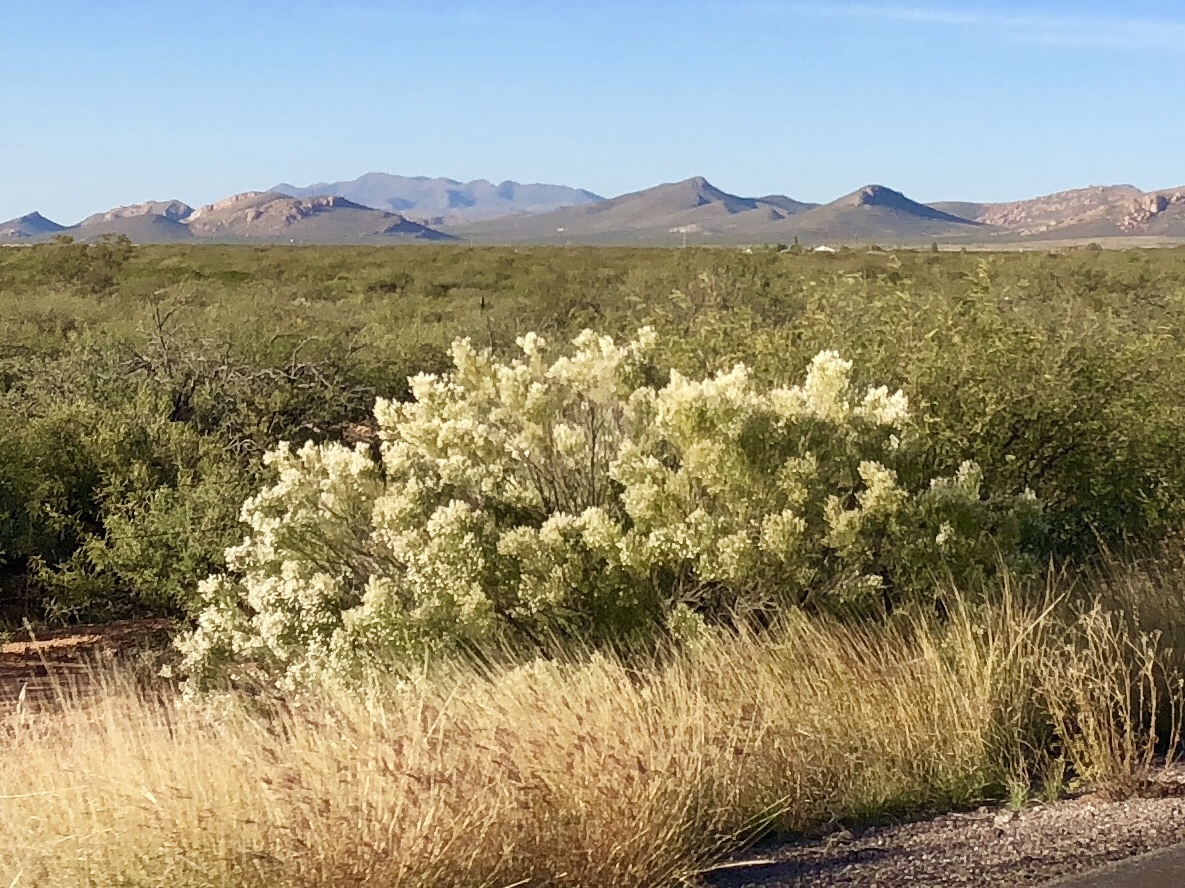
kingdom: Plantae
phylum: Tracheophyta
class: Magnoliopsida
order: Asterales
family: Asteraceae
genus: Baccharis
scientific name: Baccharis sarothroides
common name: Desert-broom
